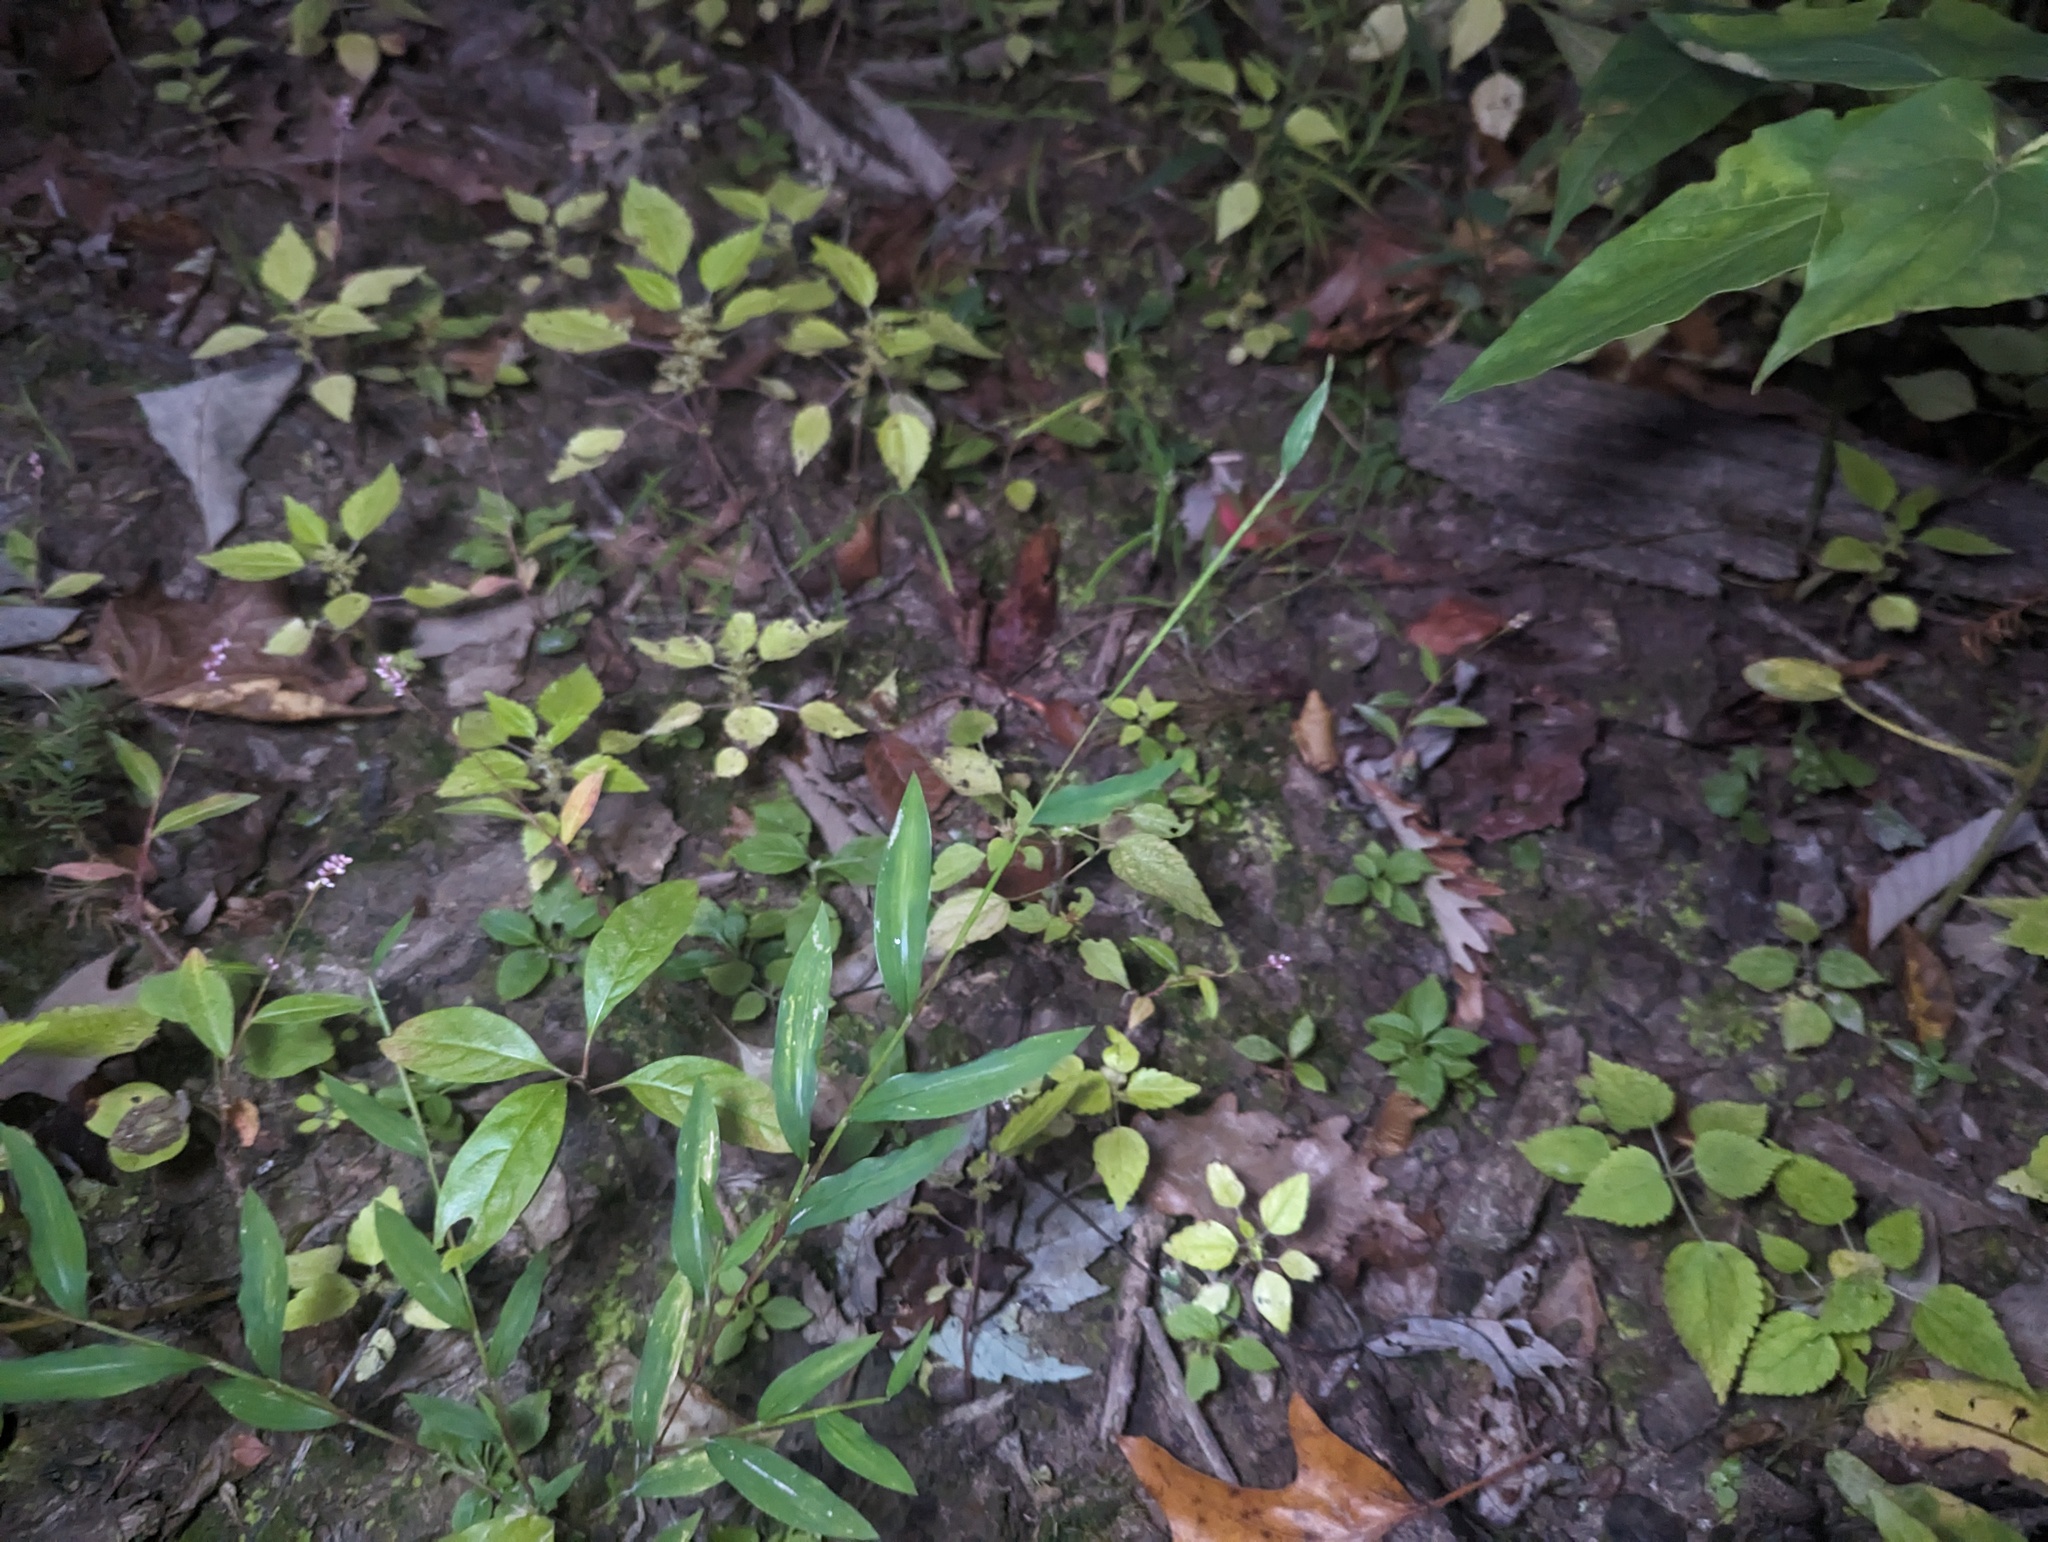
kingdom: Plantae
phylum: Tracheophyta
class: Liliopsida
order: Poales
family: Poaceae
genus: Microstegium
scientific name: Microstegium vimineum
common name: Japanese stiltgrass
